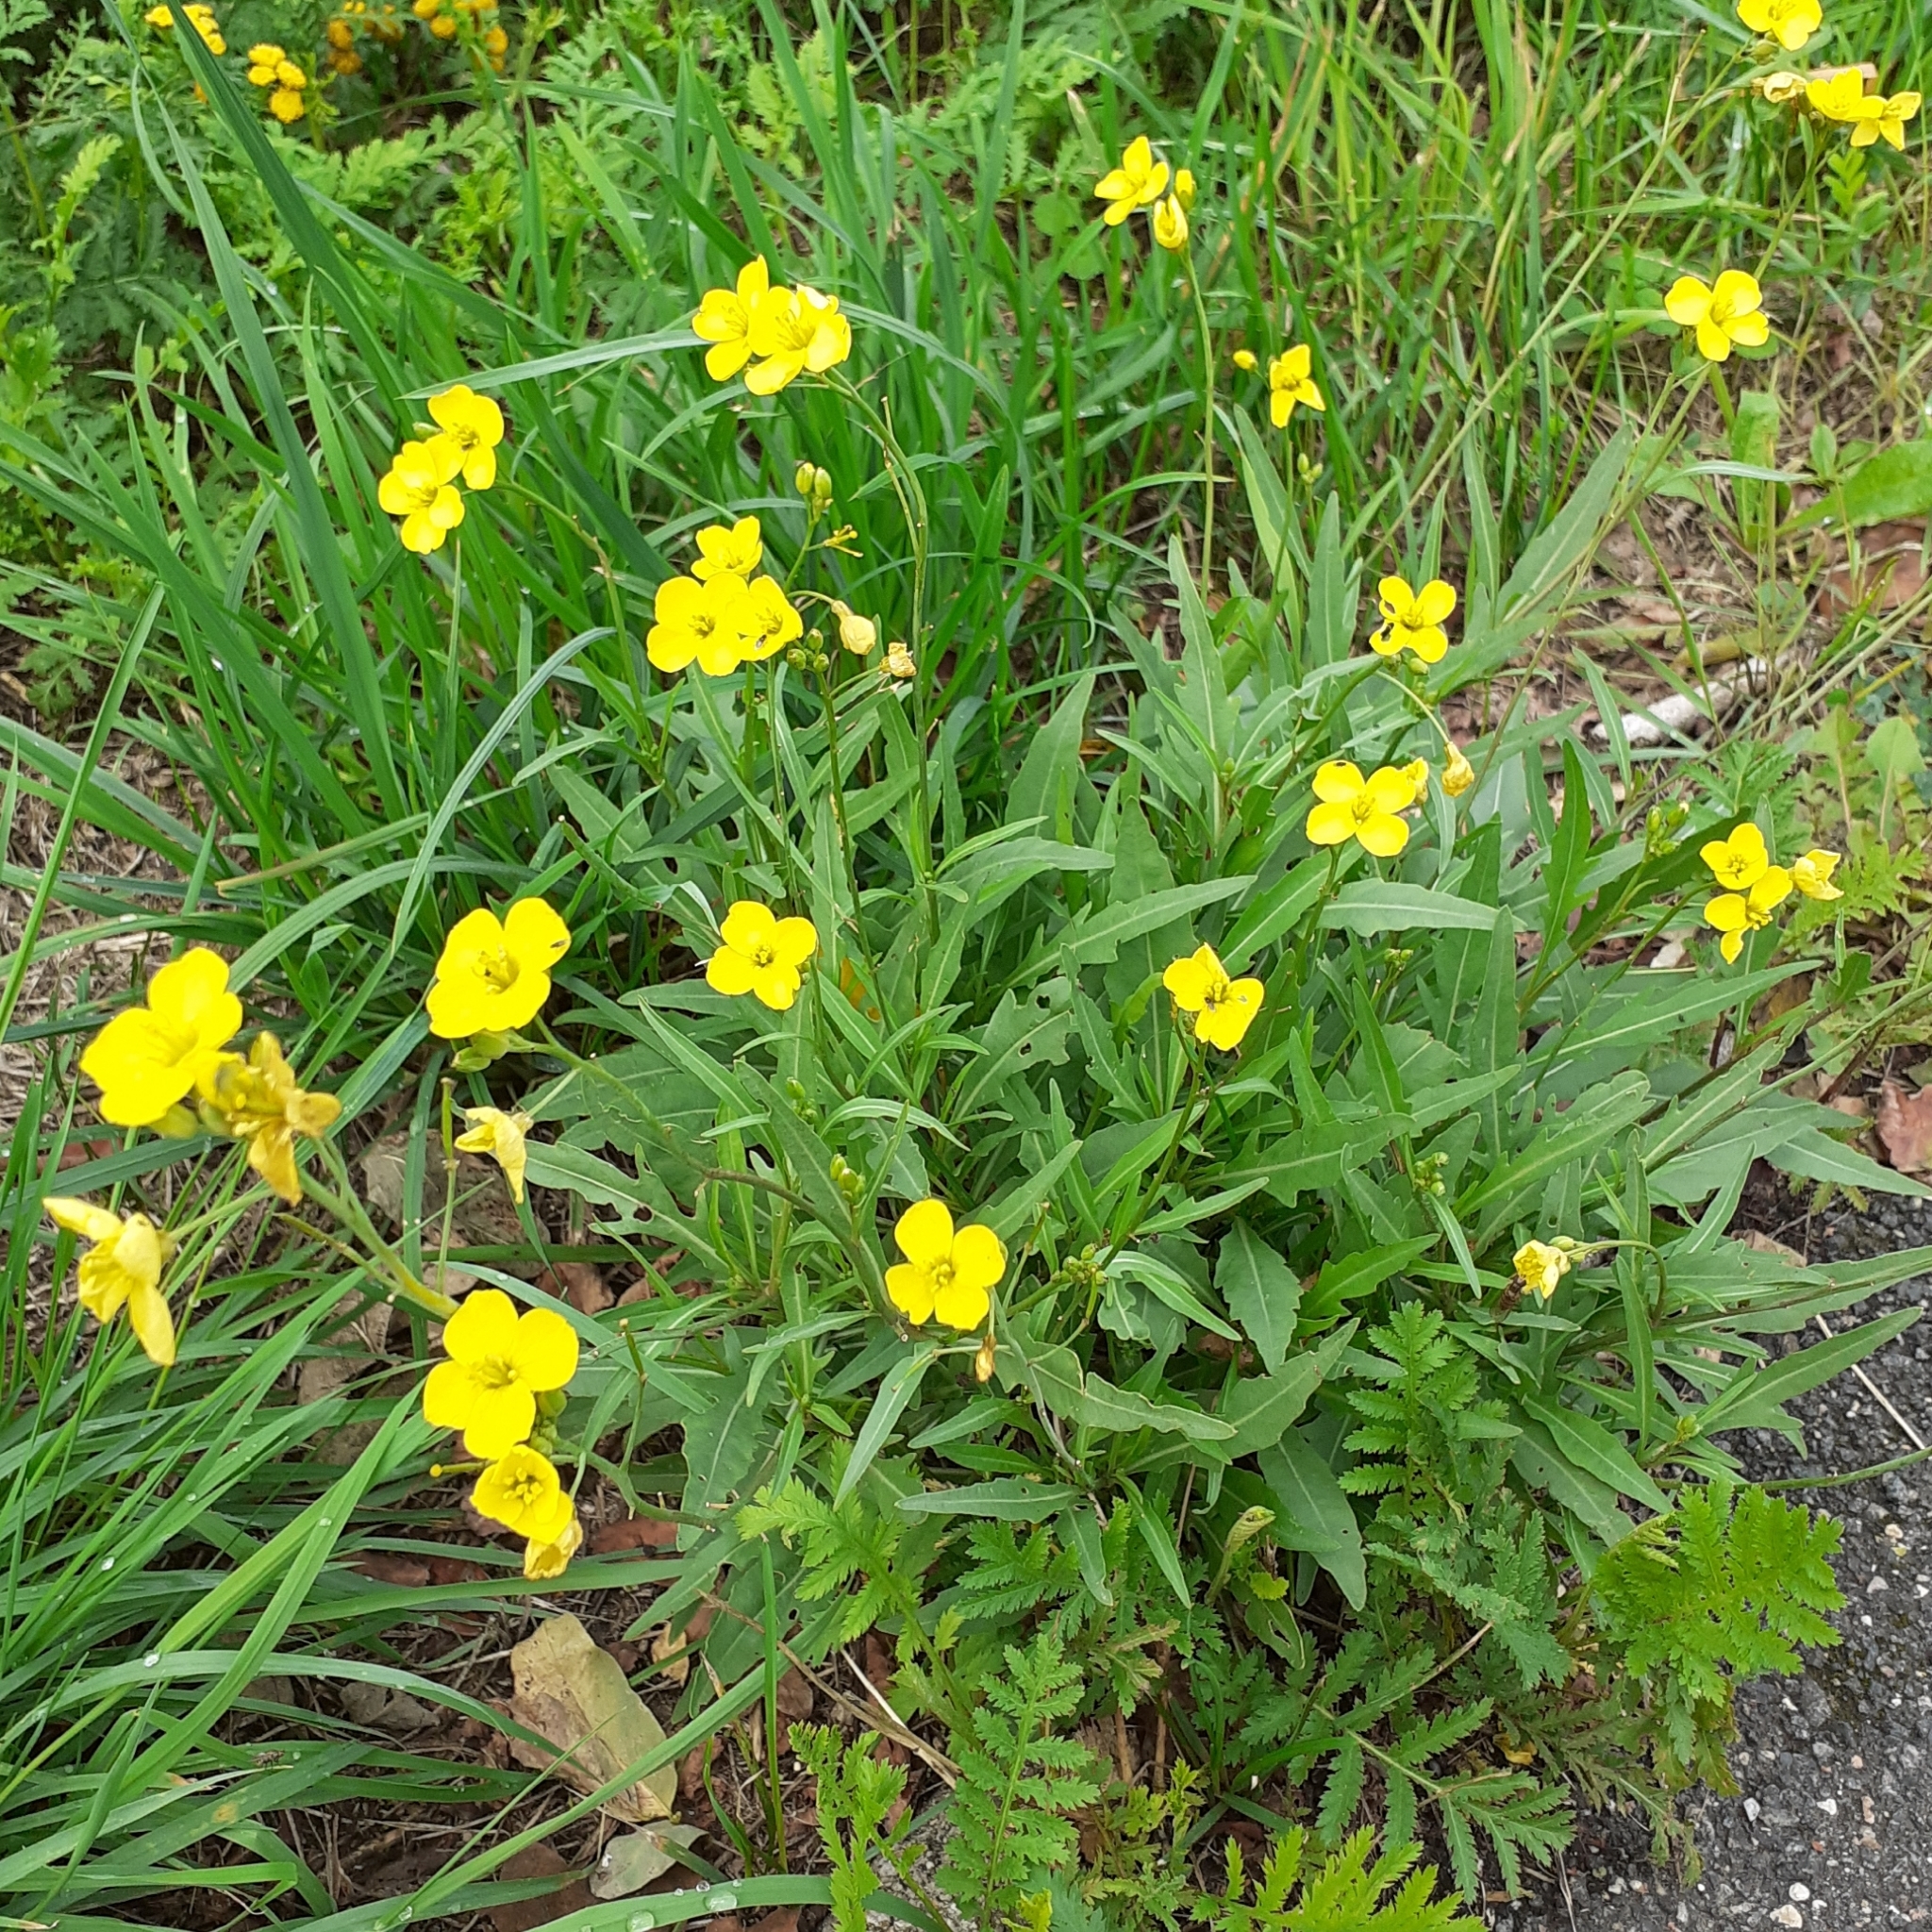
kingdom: Plantae
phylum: Tracheophyta
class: Magnoliopsida
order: Brassicales
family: Brassicaceae
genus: Diplotaxis
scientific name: Diplotaxis tenuifolia
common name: Perennial wall-rocket
